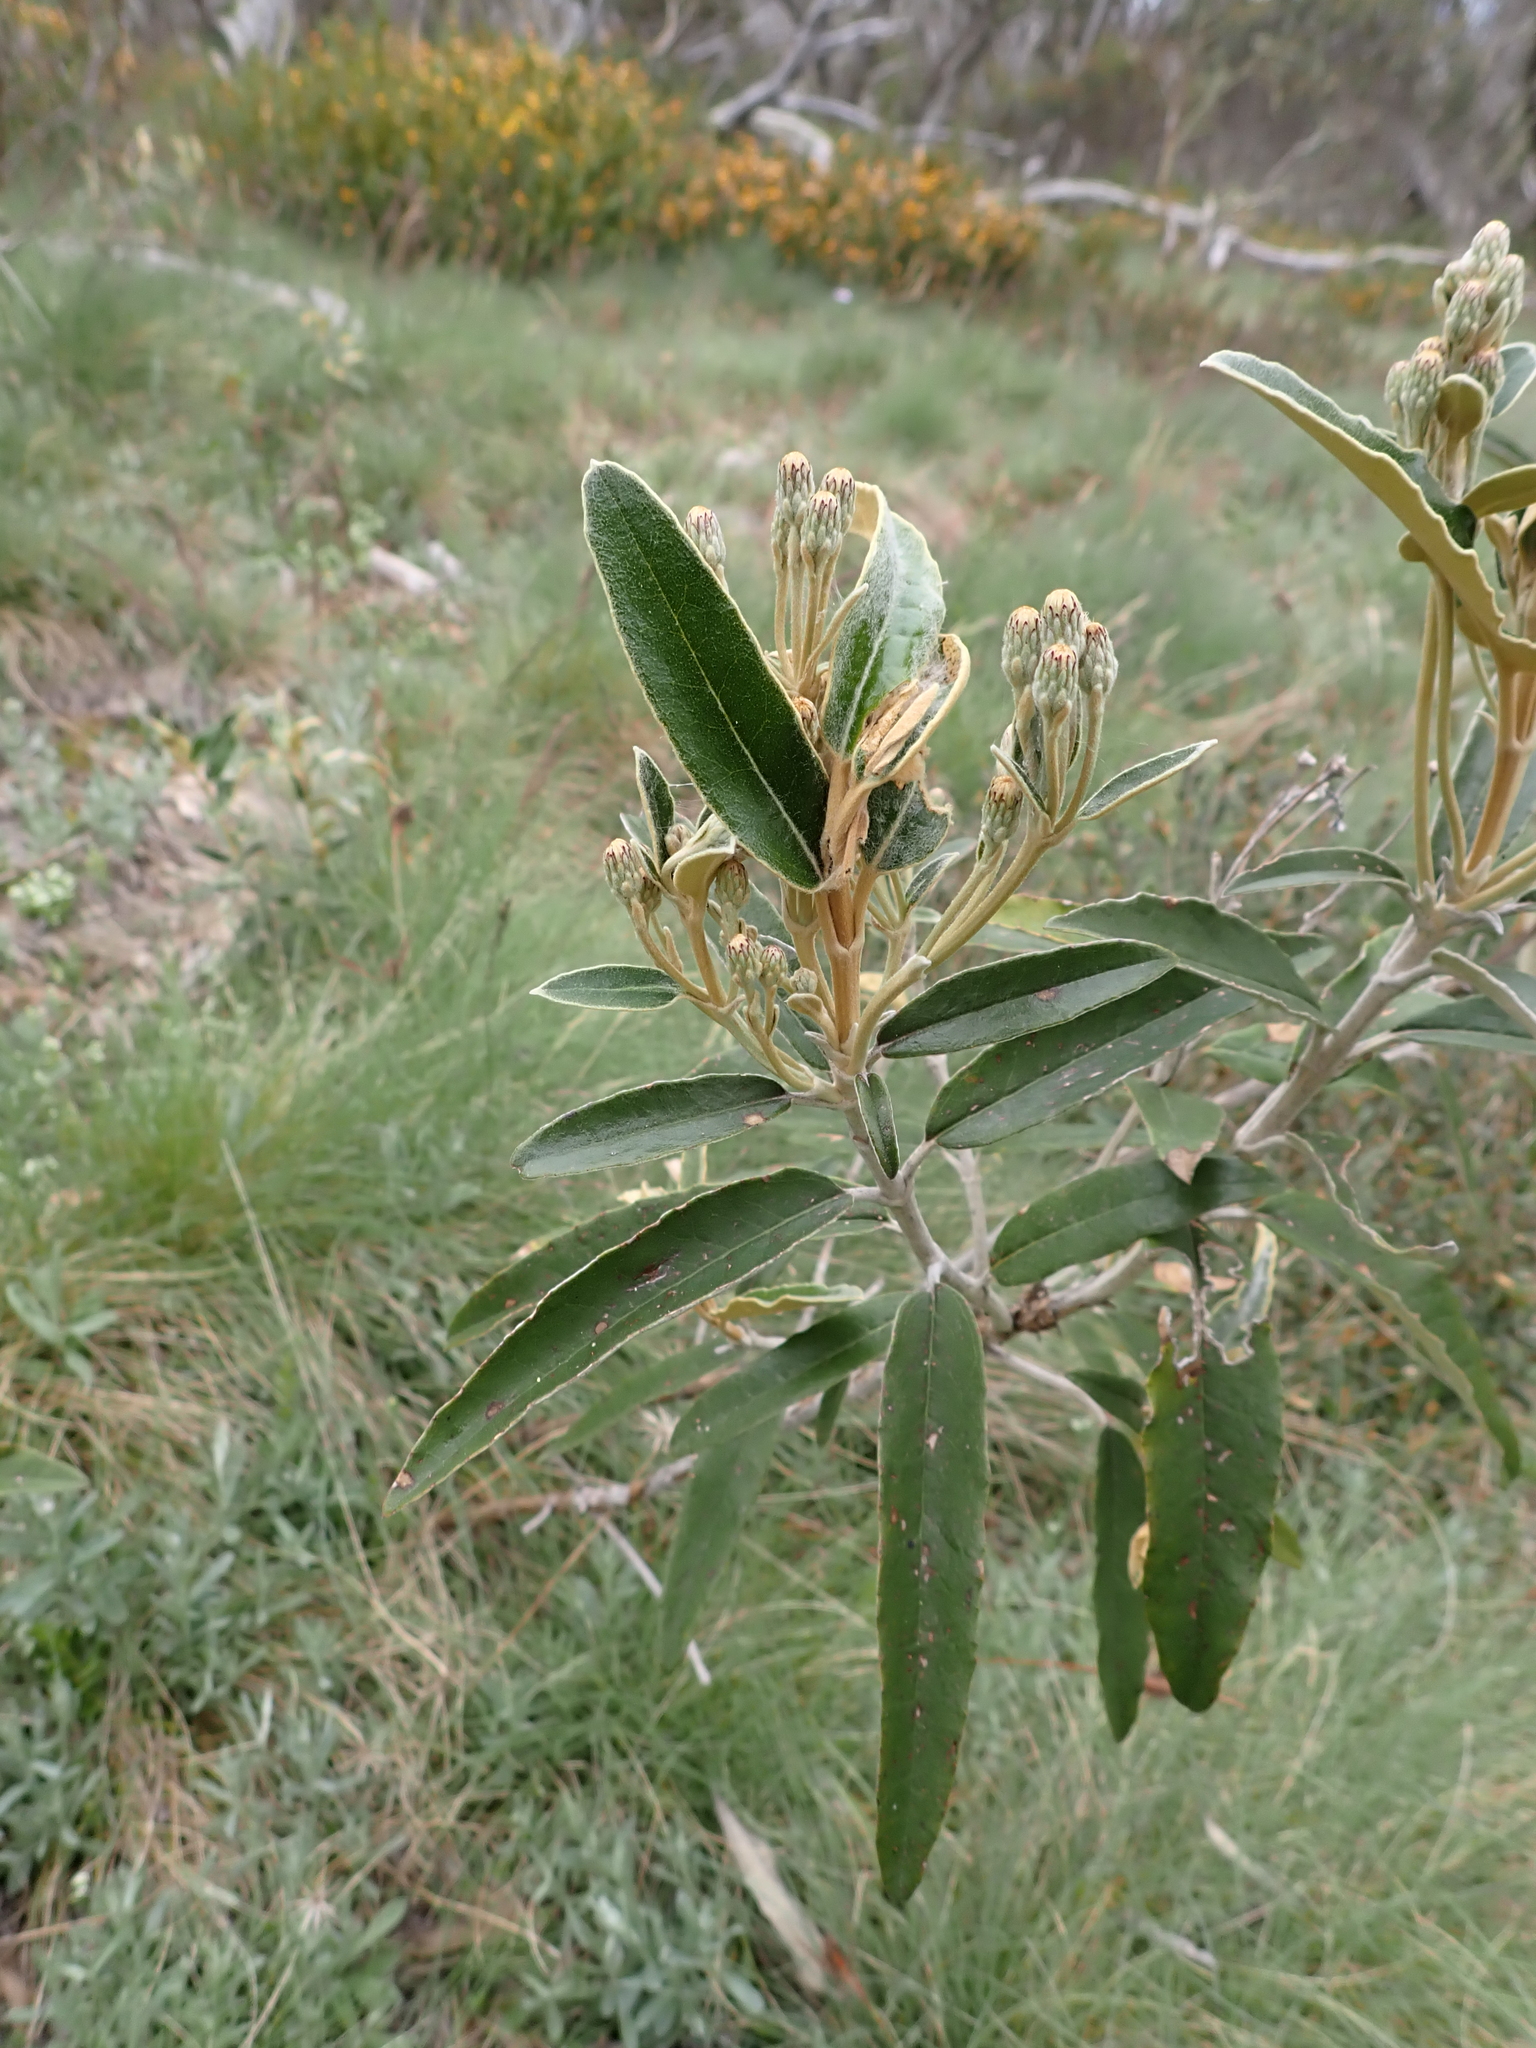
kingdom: Plantae
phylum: Tracheophyta
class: Magnoliopsida
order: Asterales
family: Asteraceae
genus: Olearia
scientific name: Olearia megalophylla
